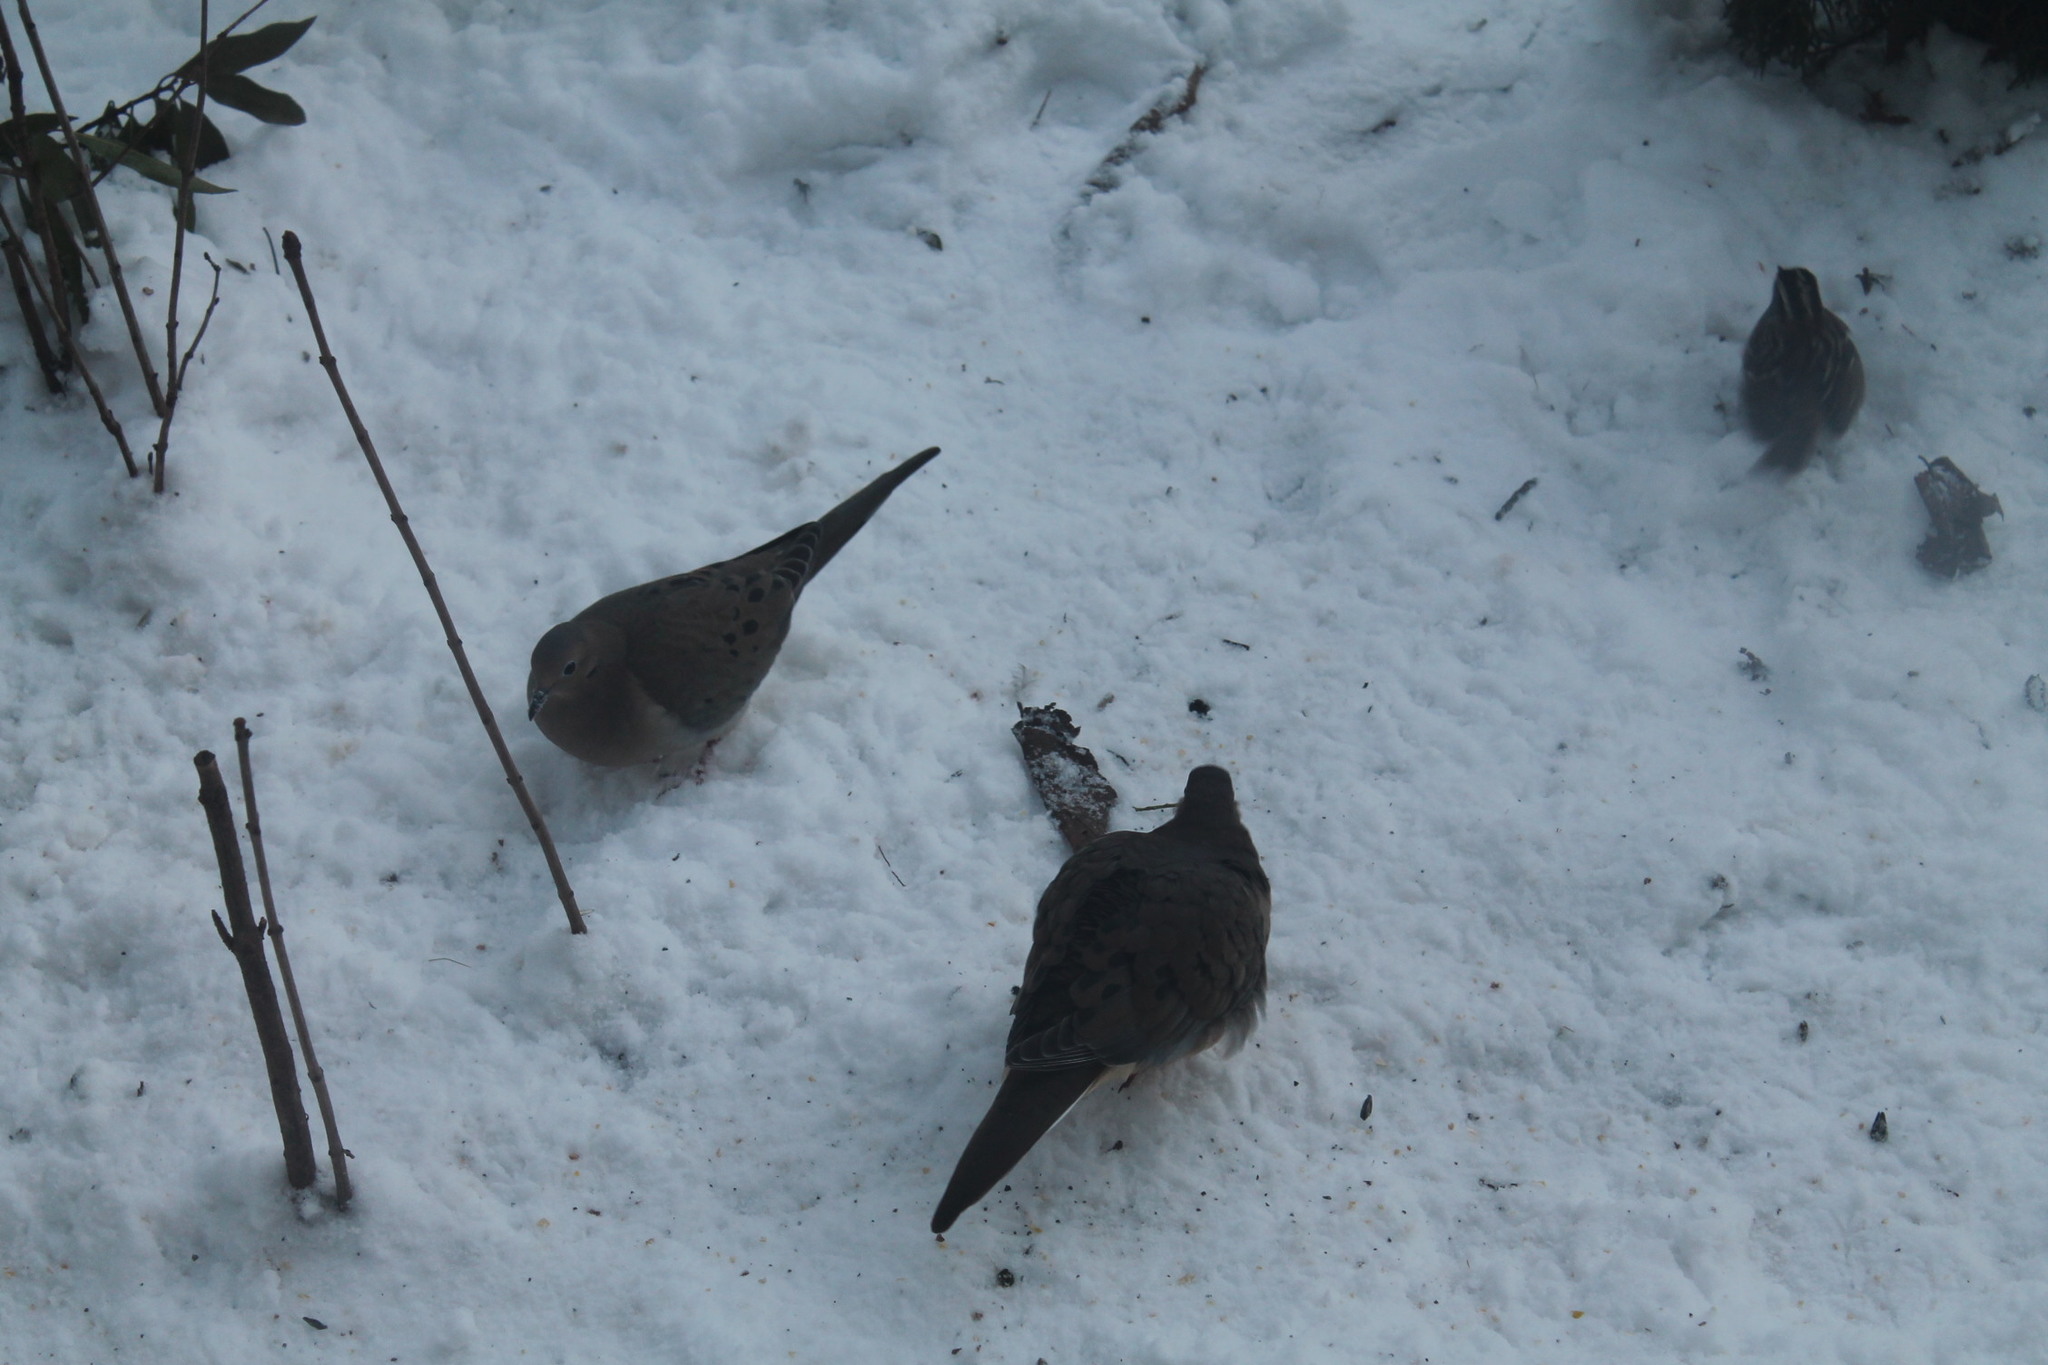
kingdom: Animalia
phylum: Chordata
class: Aves
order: Columbiformes
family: Columbidae
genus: Zenaida
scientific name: Zenaida macroura
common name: Mourning dove
